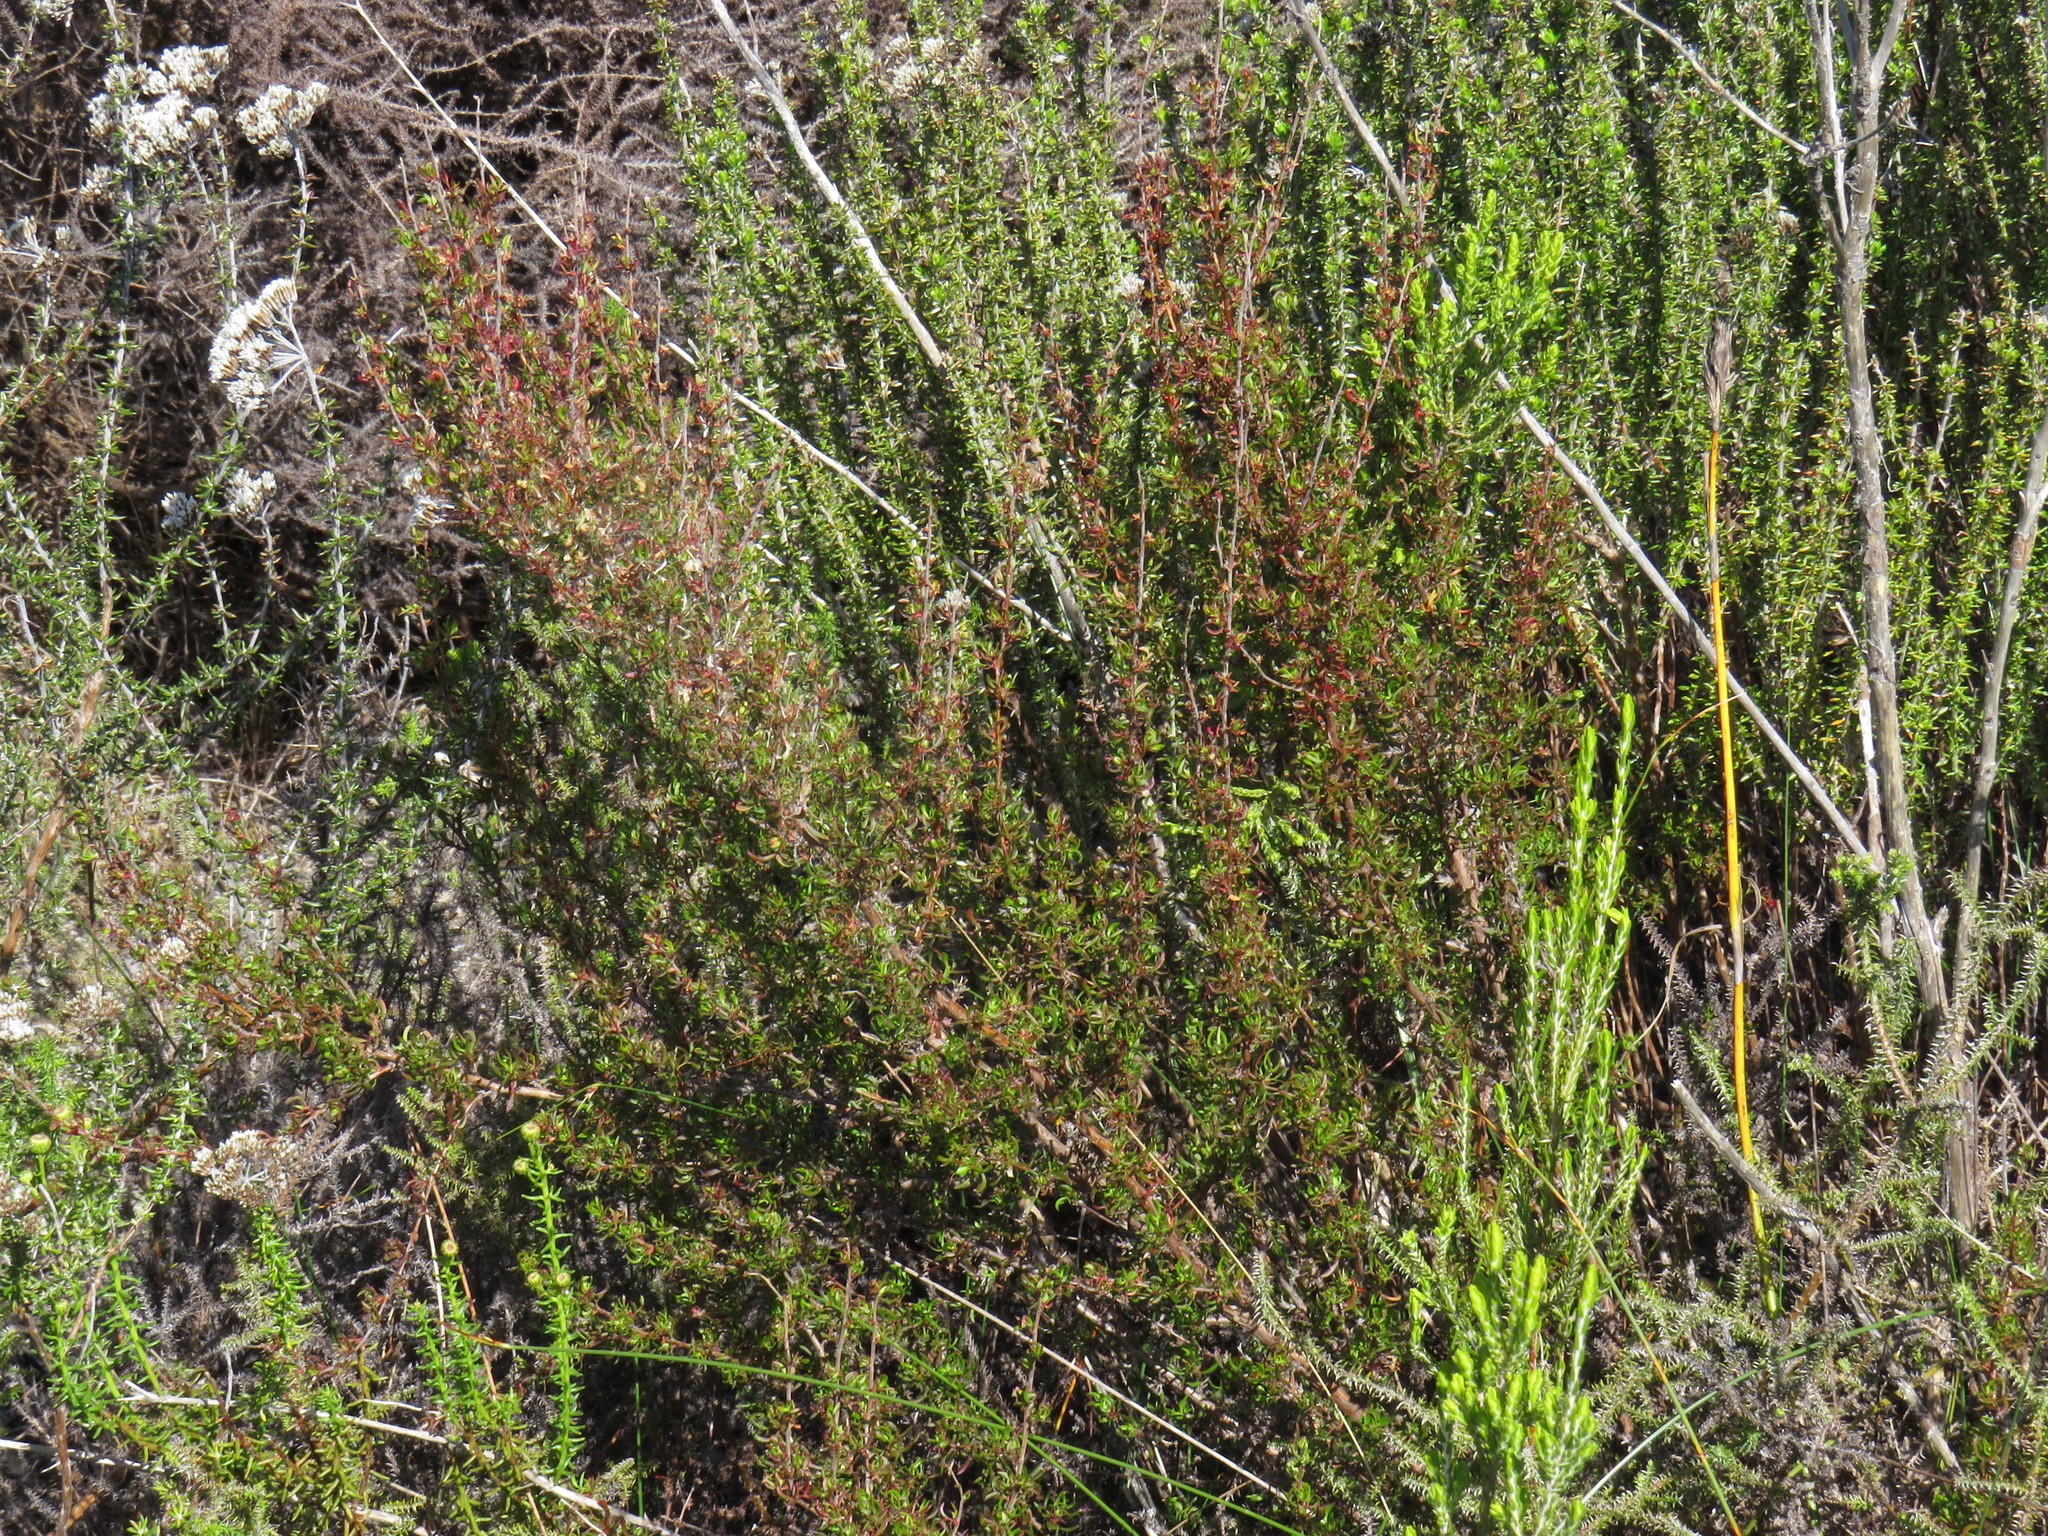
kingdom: Plantae
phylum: Tracheophyta
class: Magnoliopsida
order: Rosales
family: Rosaceae
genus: Cliffortia
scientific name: Cliffortia falcata
